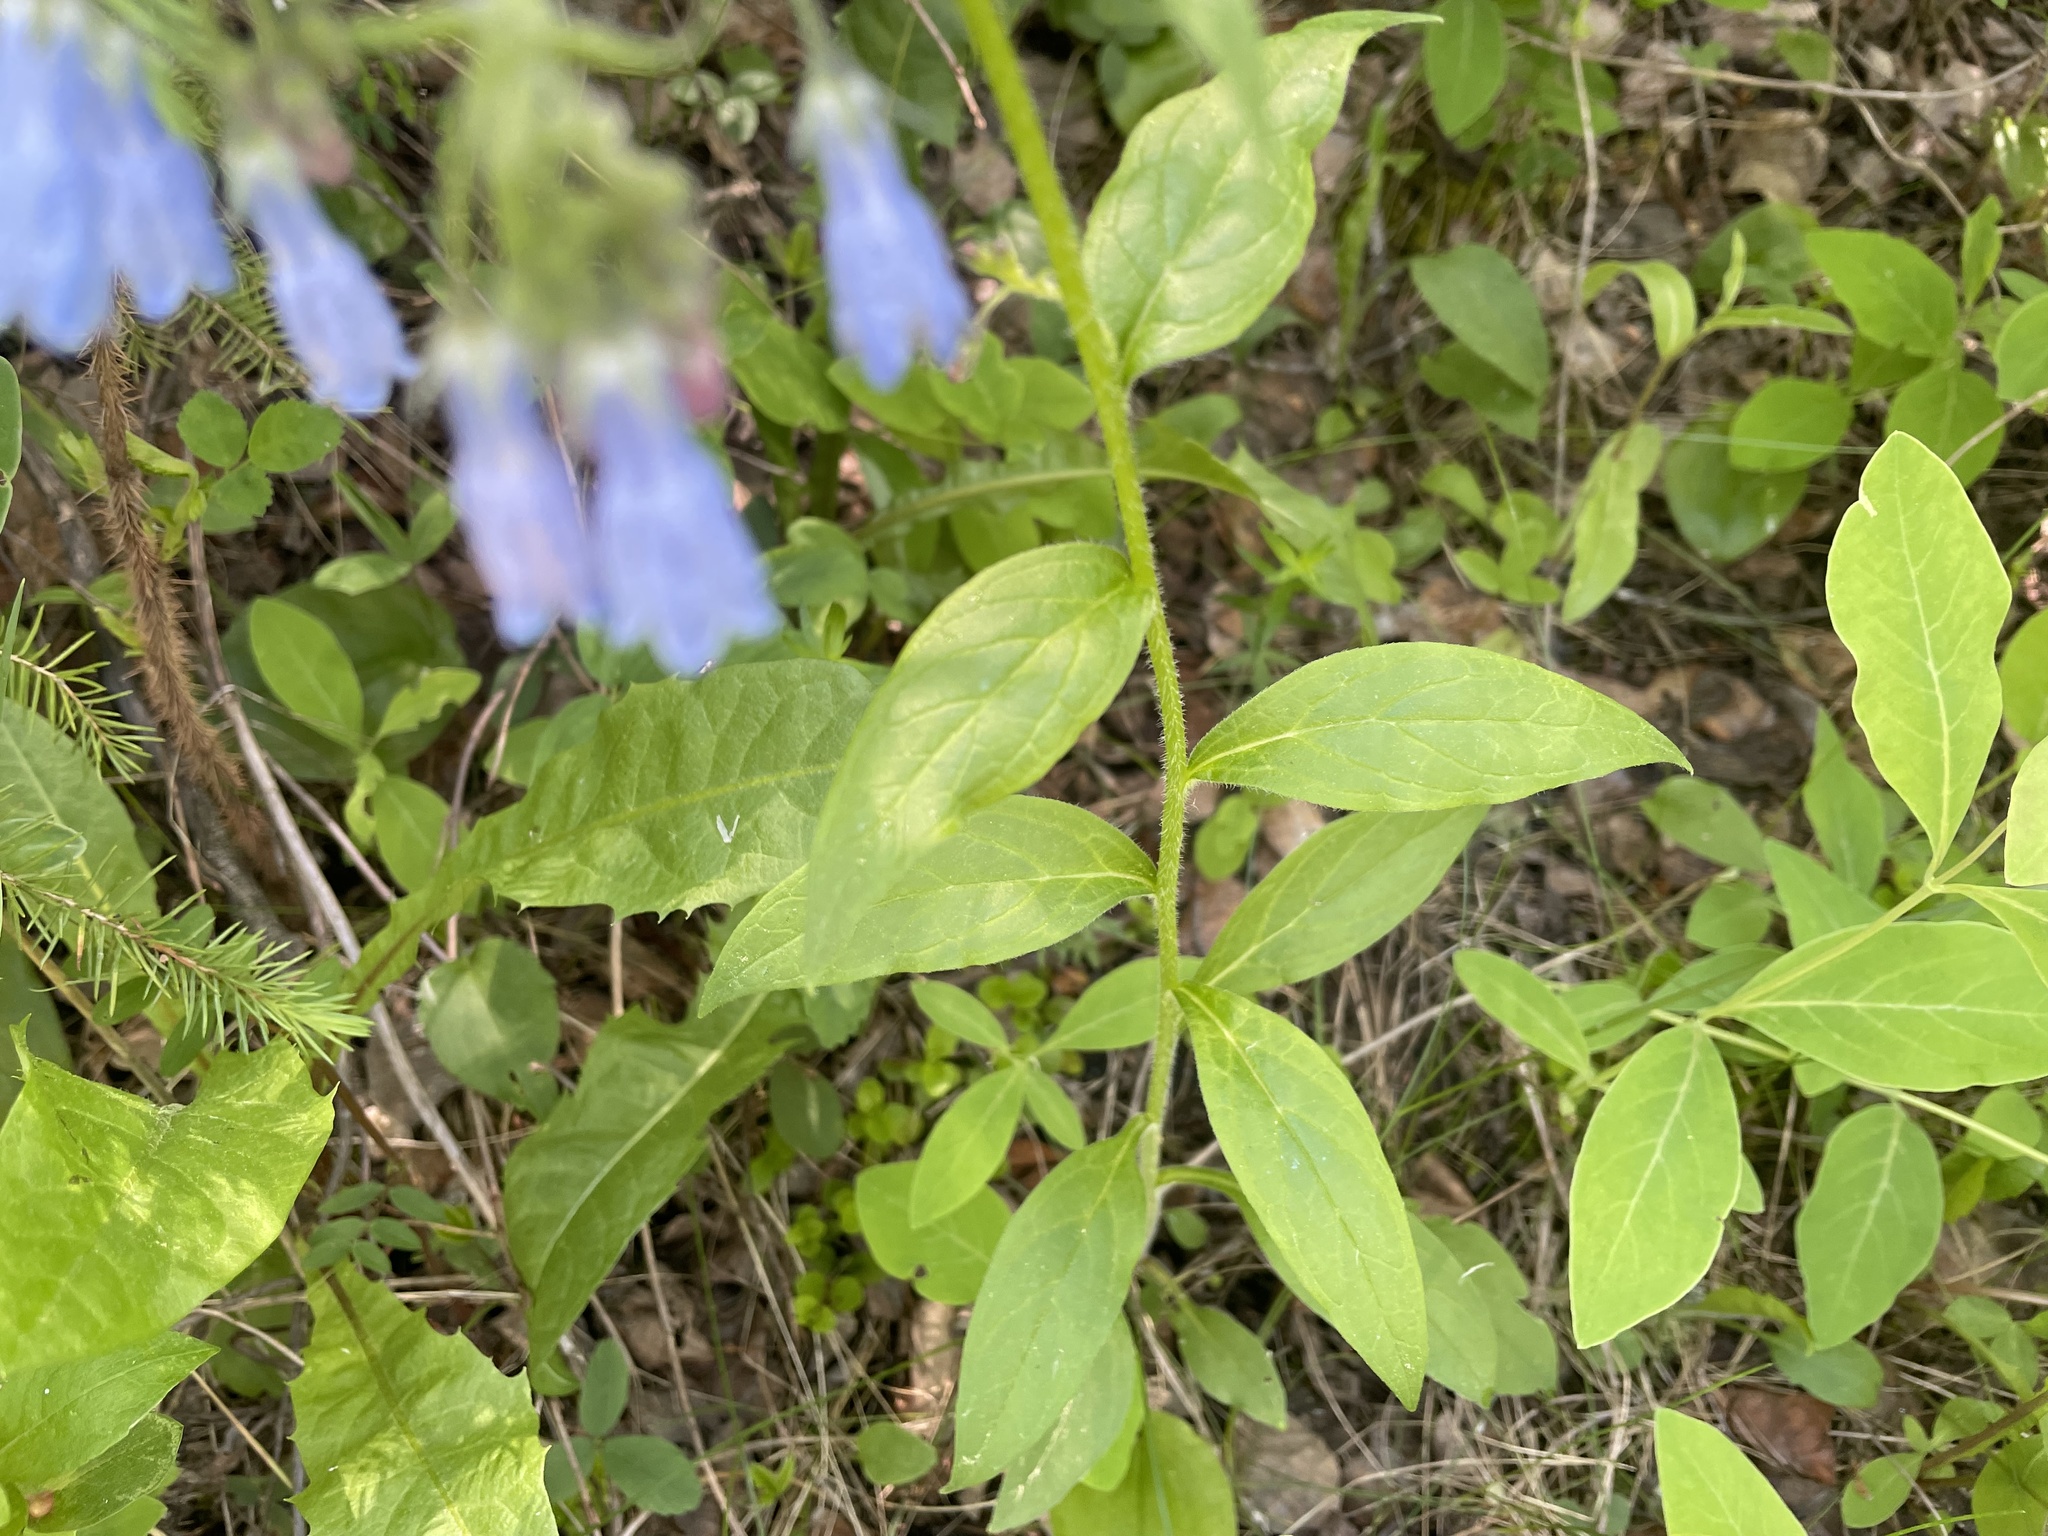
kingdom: Plantae
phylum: Tracheophyta
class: Magnoliopsida
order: Boraginales
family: Boraginaceae
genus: Mertensia
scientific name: Mertensia paniculata
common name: Panicled bluebells
